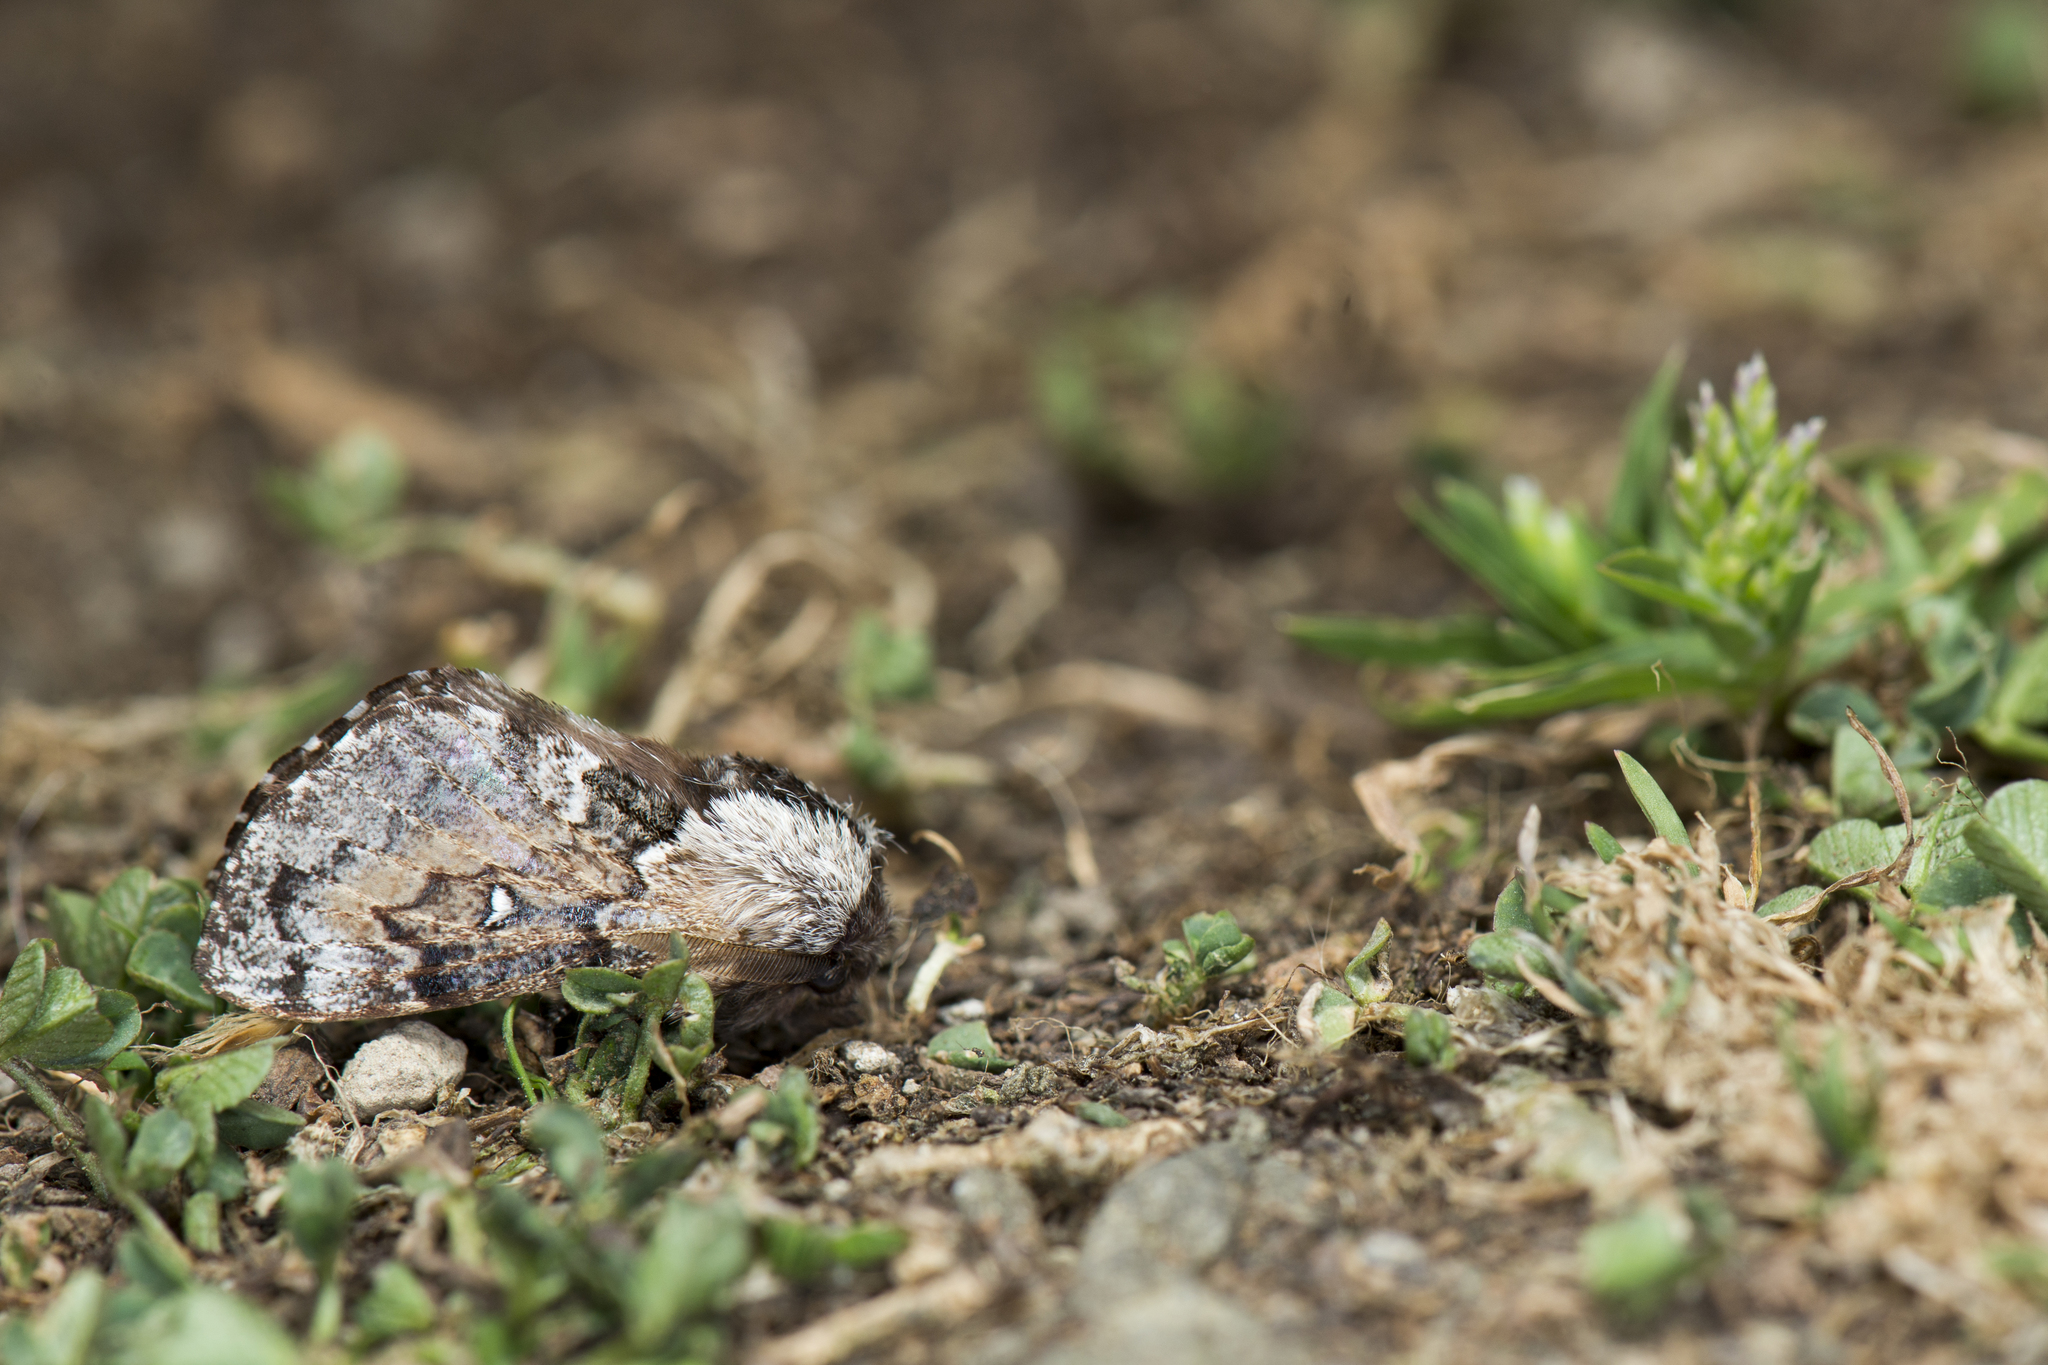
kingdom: Animalia
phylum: Arthropoda
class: Insecta
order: Lepidoptera
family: Lasiocampidae
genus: Cosmotriche
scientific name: Cosmotriche discitincta
